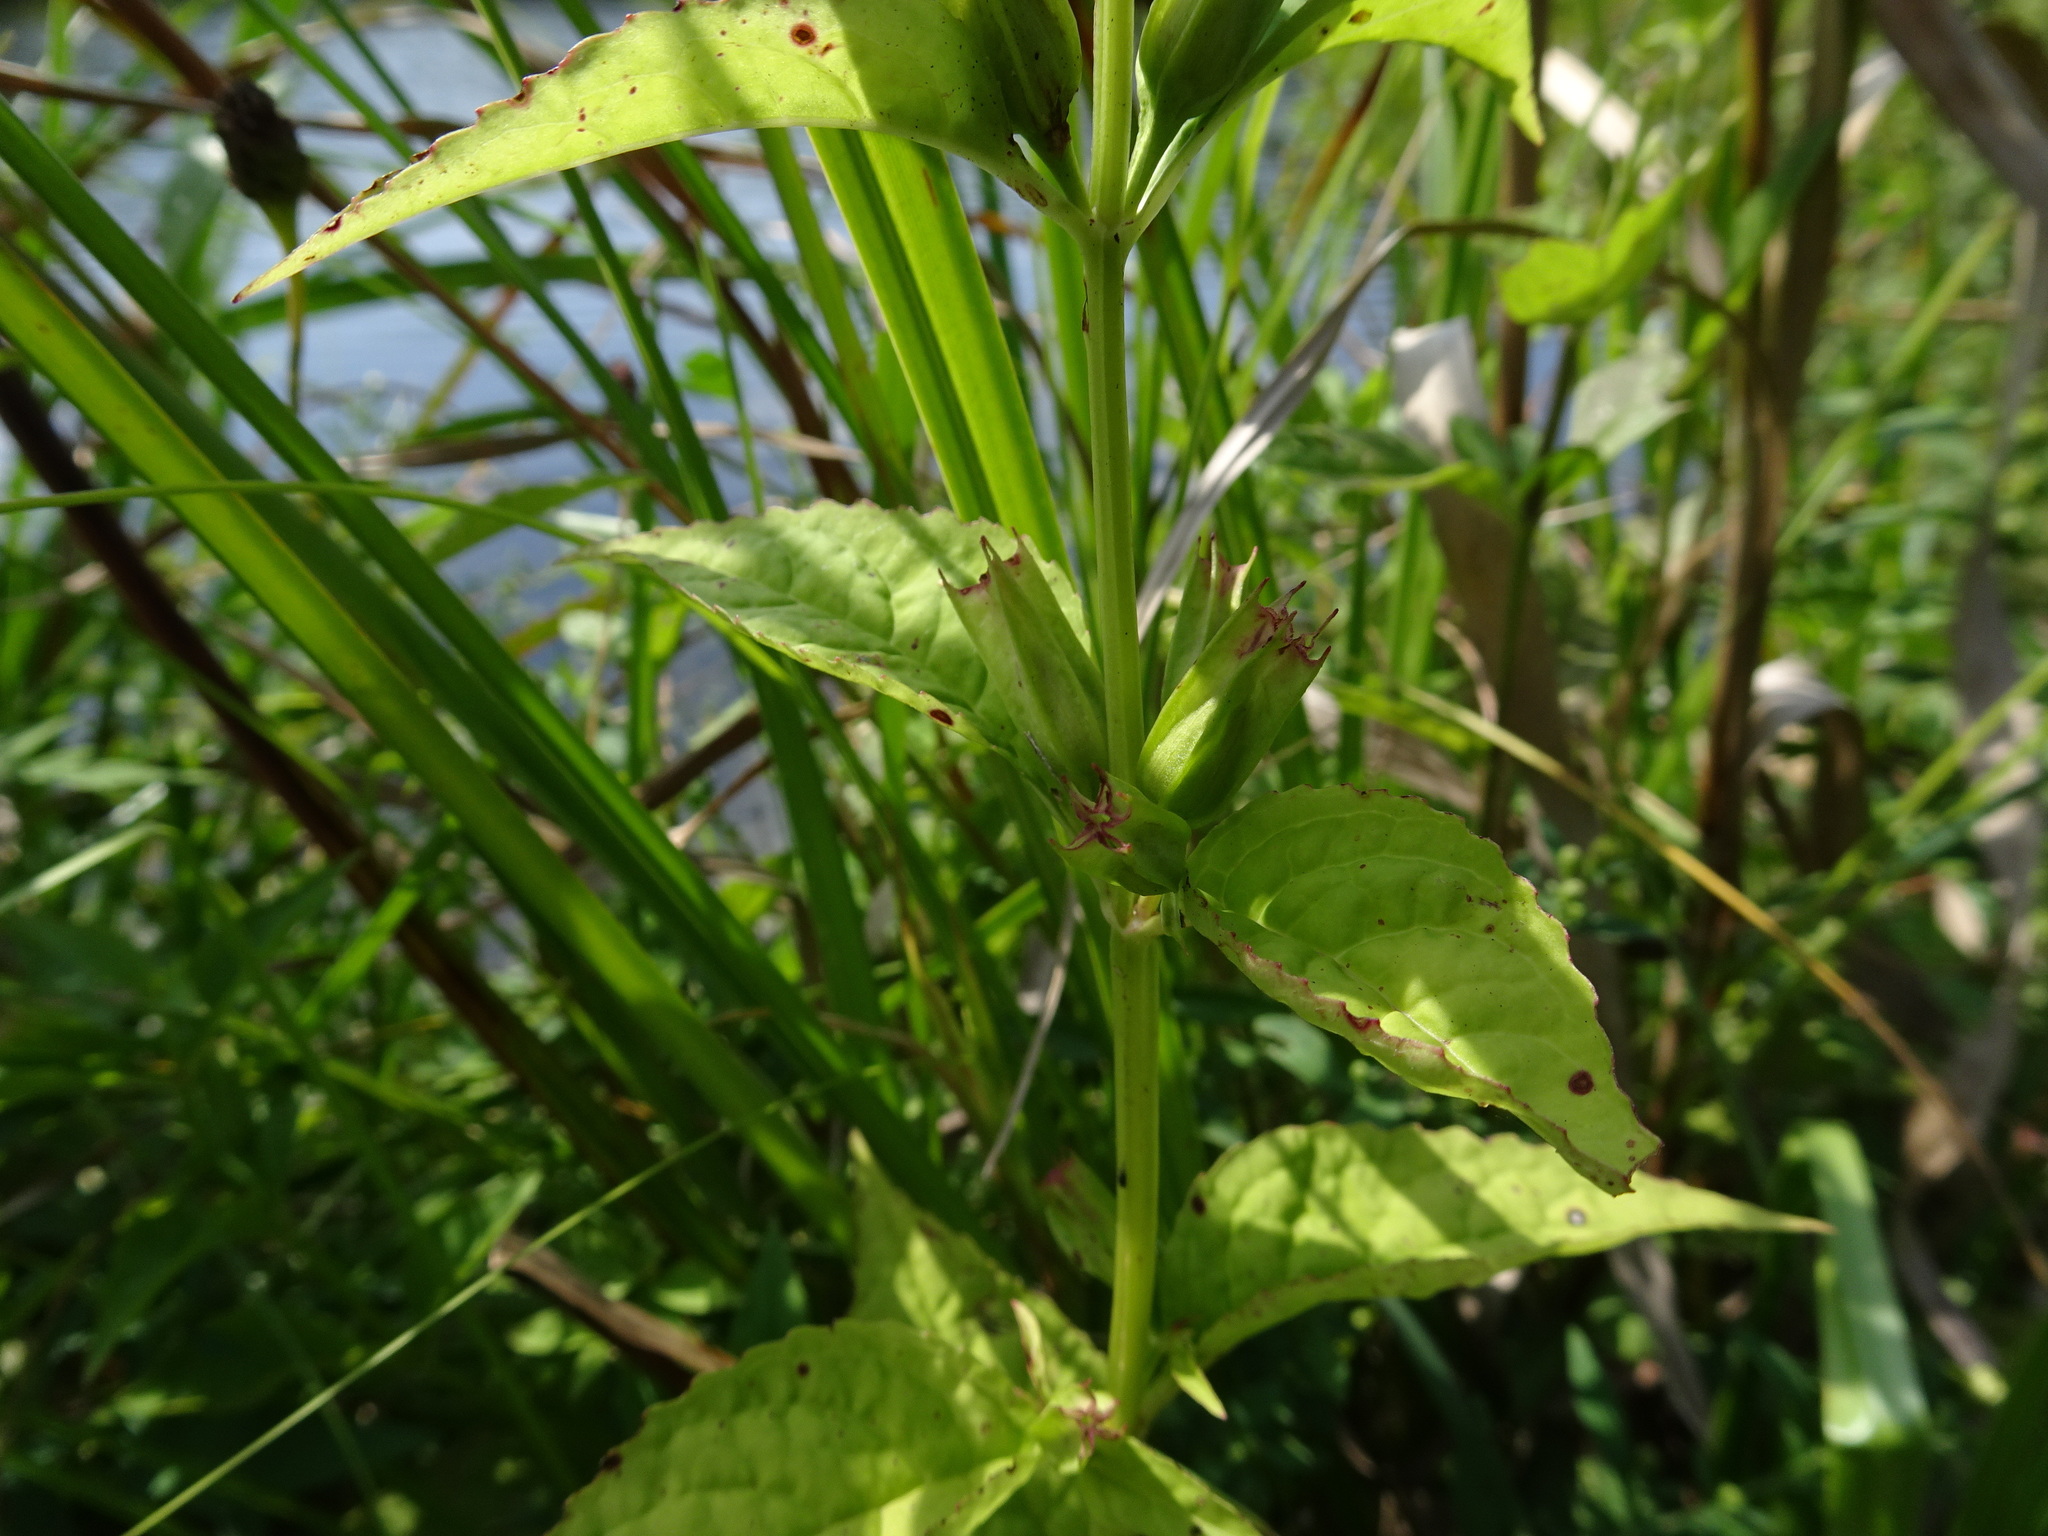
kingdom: Plantae
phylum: Tracheophyta
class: Magnoliopsida
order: Lamiales
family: Phrymaceae
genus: Mimulus
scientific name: Mimulus alatus
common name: Sharp-wing monkey-flower
